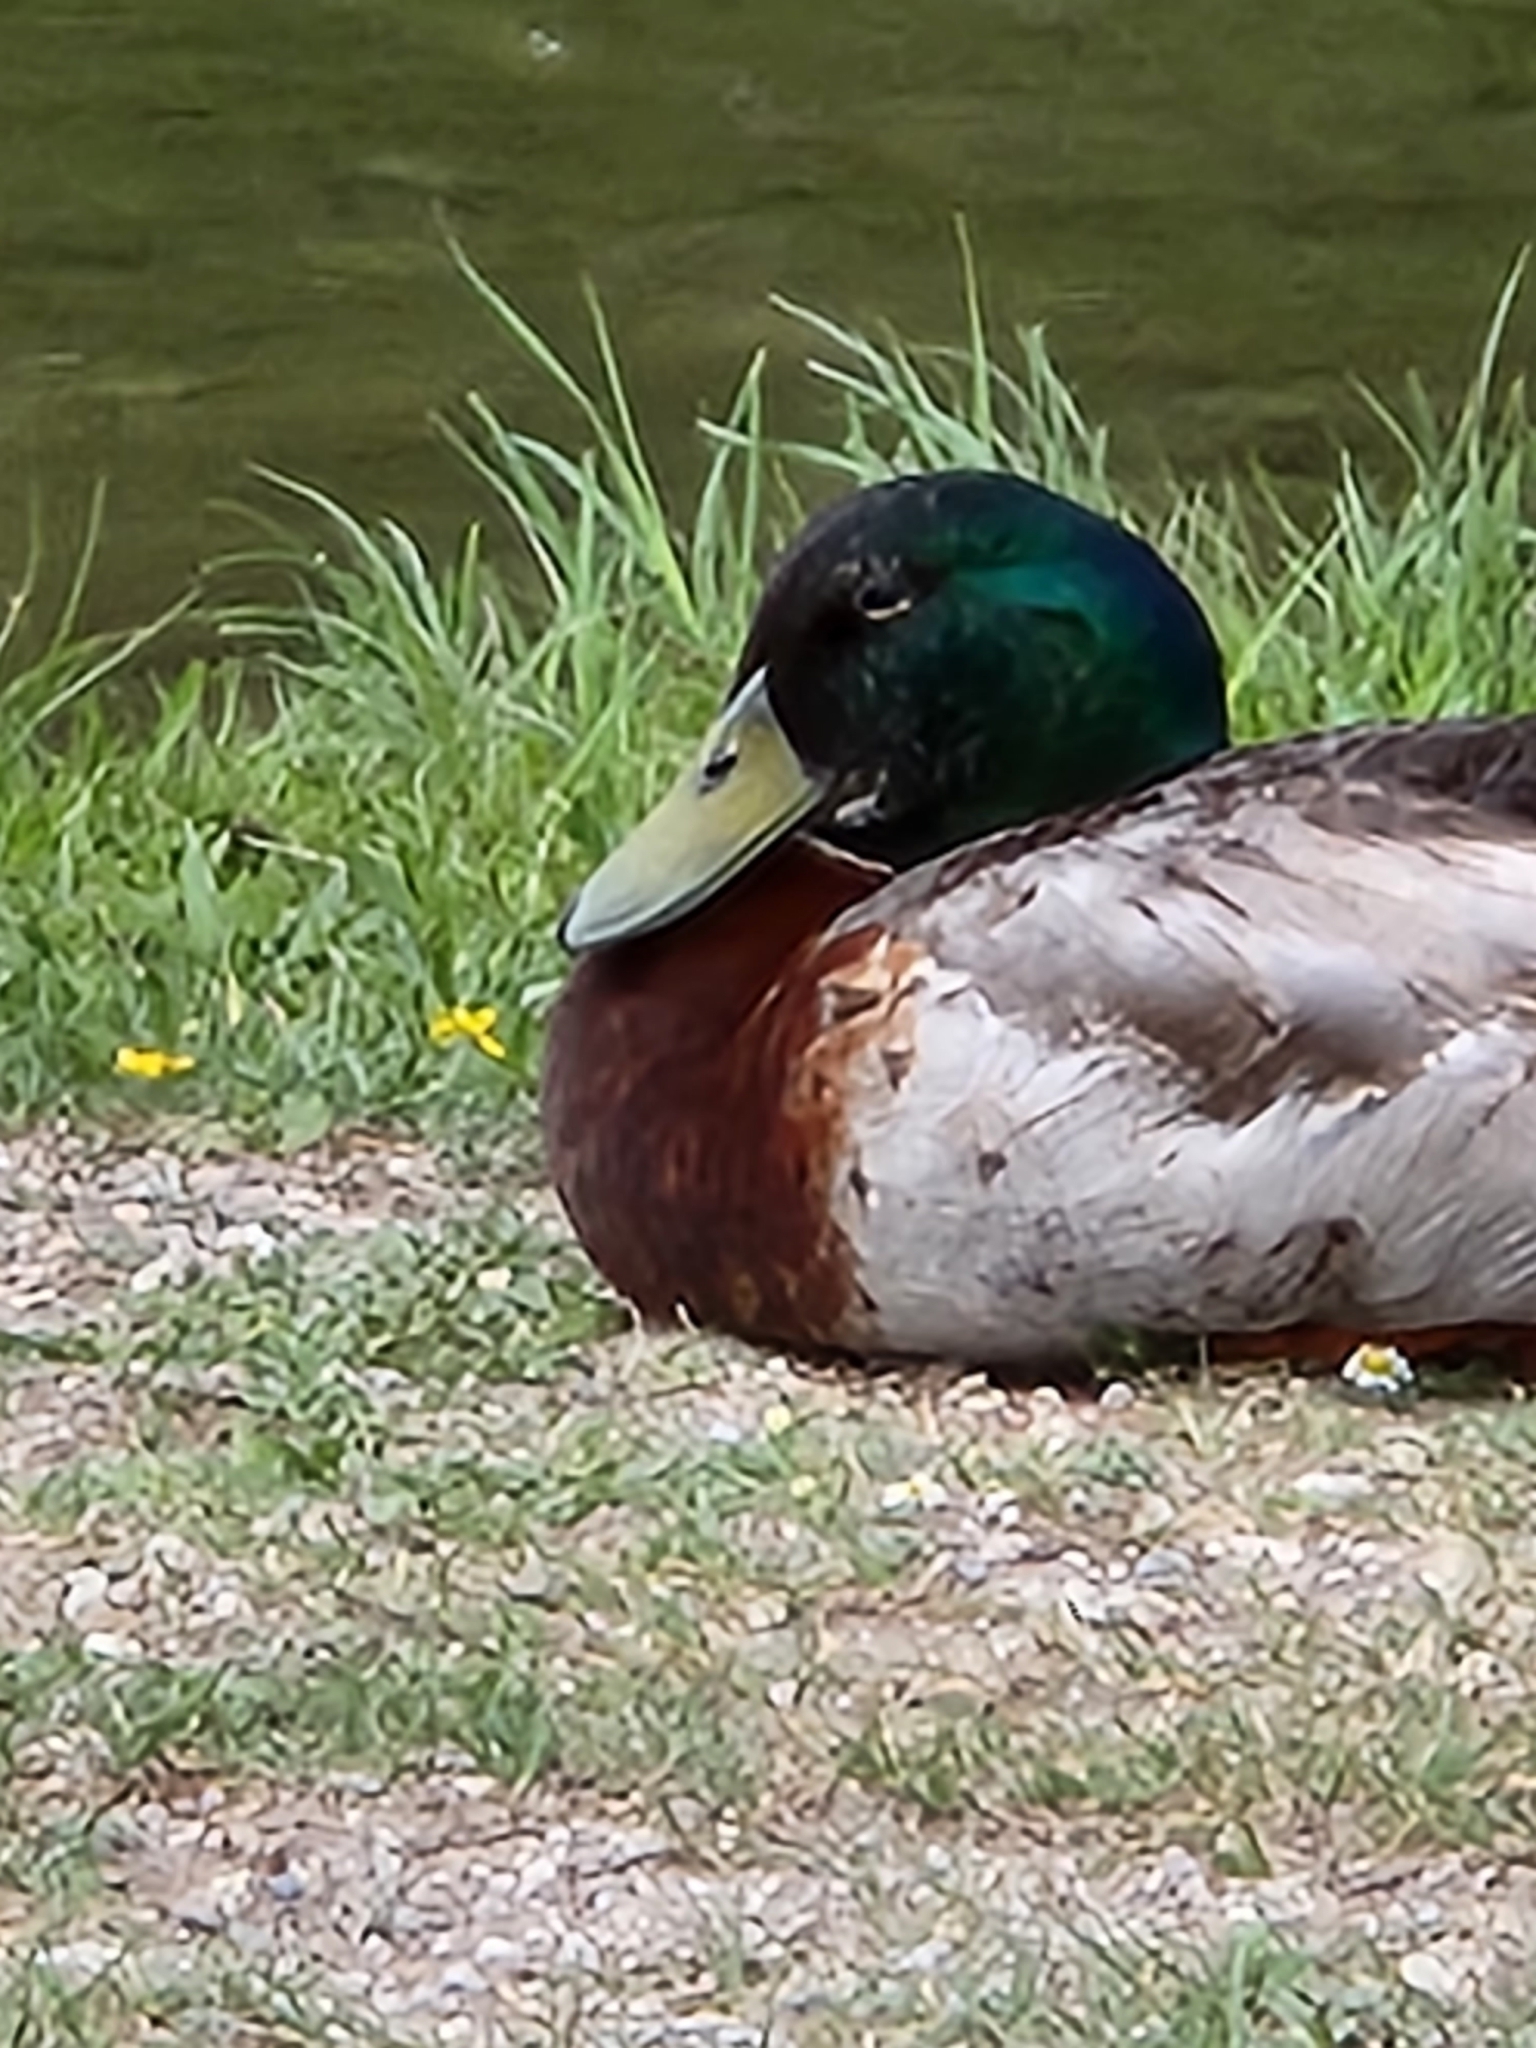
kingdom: Animalia
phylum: Chordata
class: Aves
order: Anseriformes
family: Anatidae
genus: Anas
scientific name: Anas platyrhynchos
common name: Mallard
